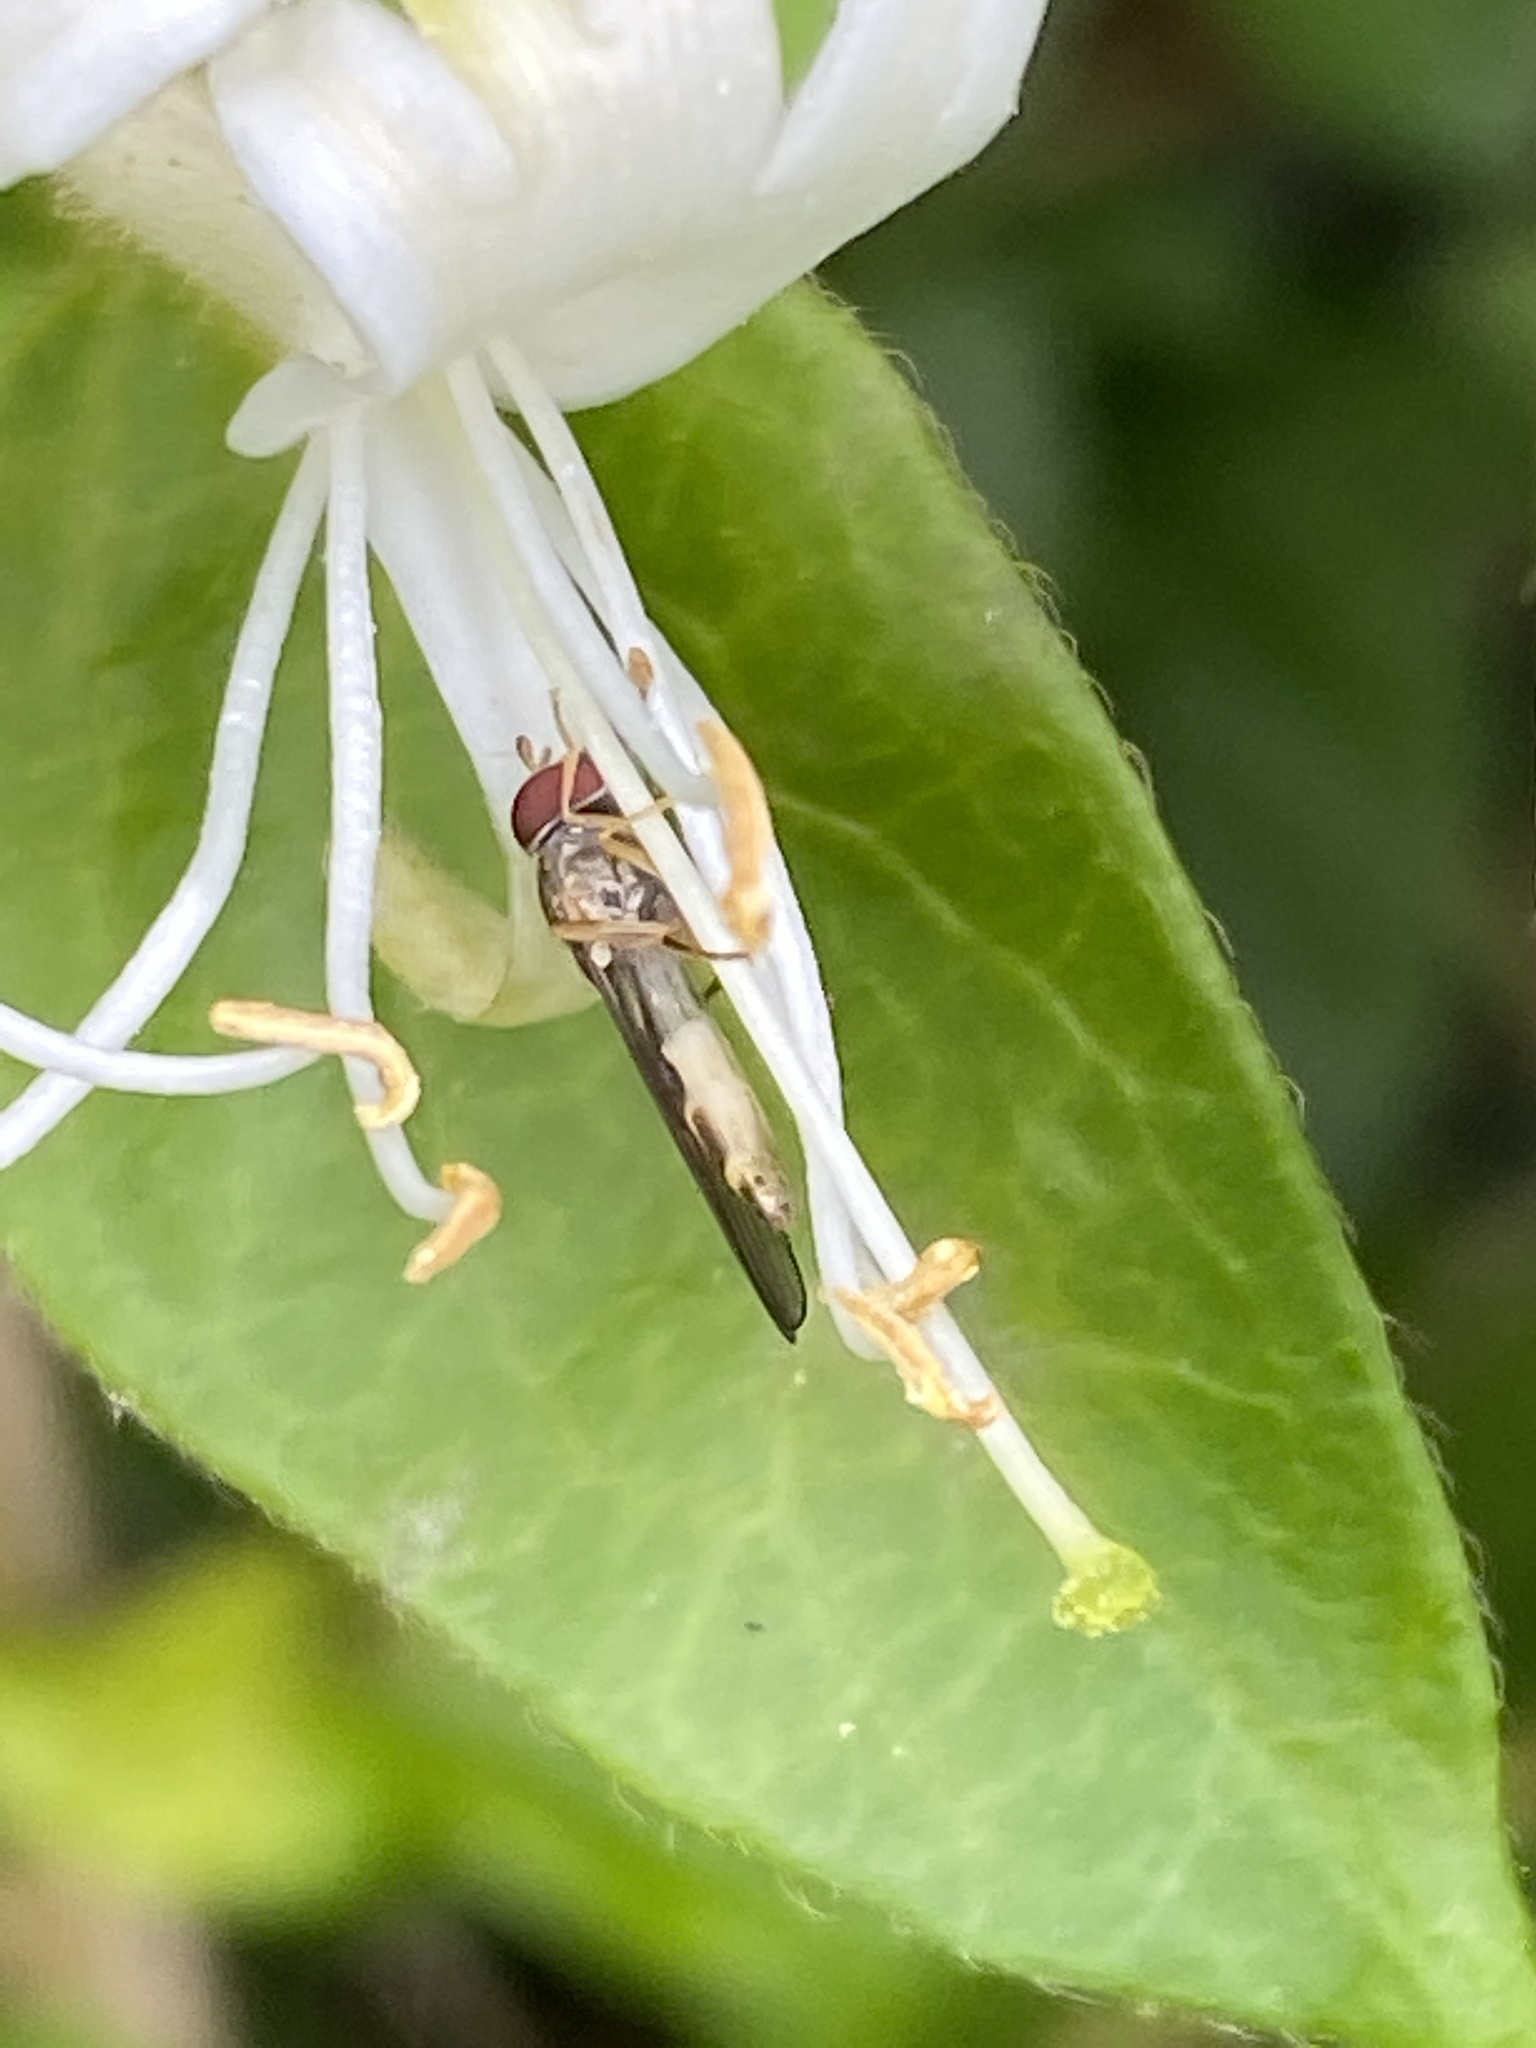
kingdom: Animalia
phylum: Arthropoda
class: Insecta
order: Diptera
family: Syrphidae
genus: Melanostoma
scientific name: Melanostoma
